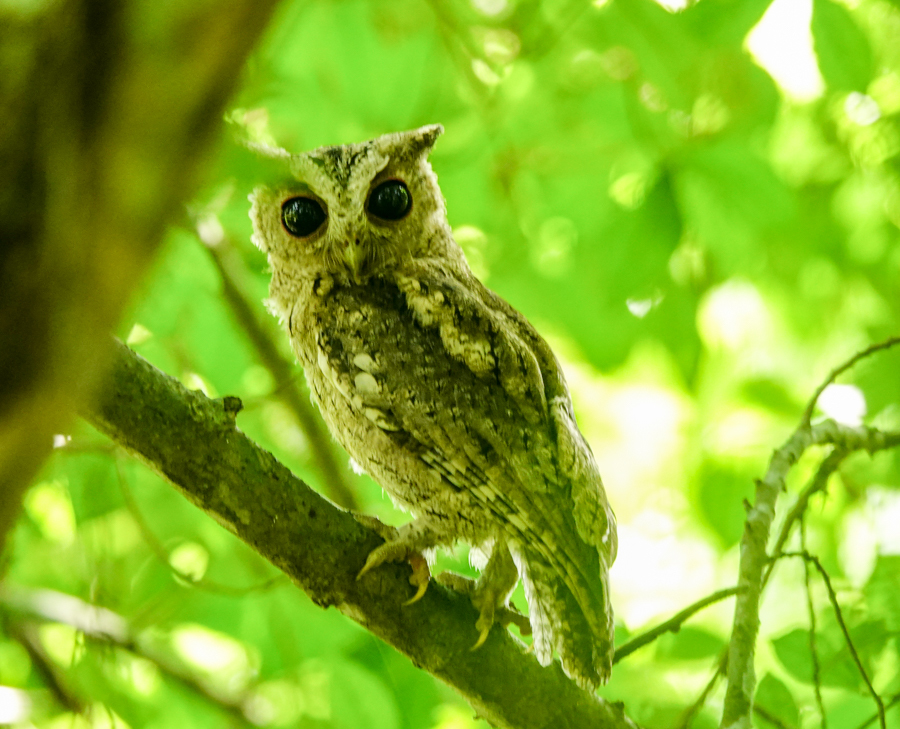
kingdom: Animalia
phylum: Chordata
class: Aves
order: Strigiformes
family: Strigidae
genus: Otus
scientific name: Otus lettia
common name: Collared scops owl
